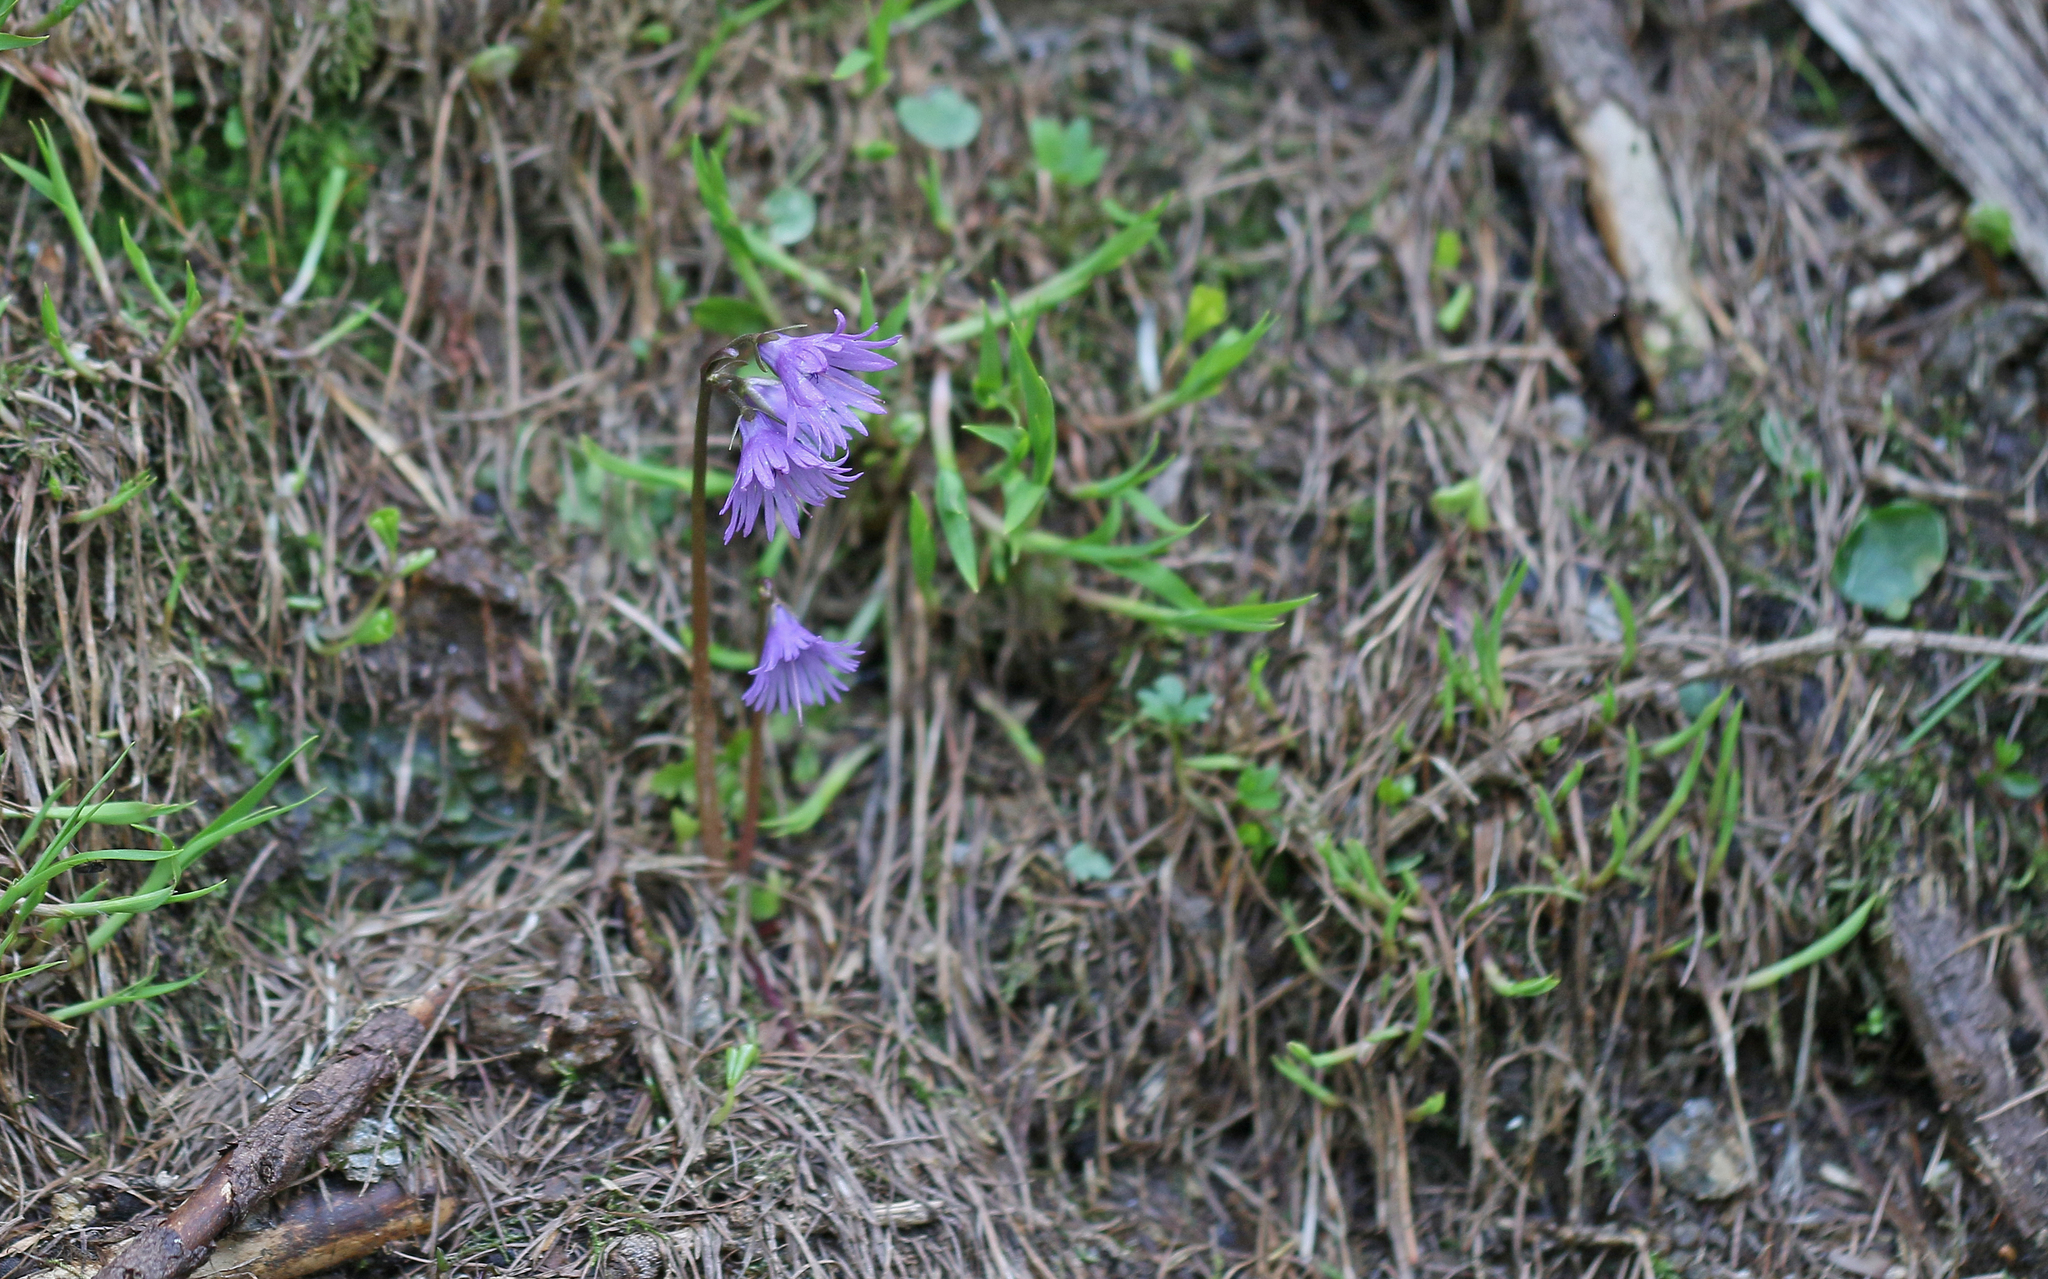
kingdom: Plantae
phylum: Tracheophyta
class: Magnoliopsida
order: Ericales
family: Primulaceae
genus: Soldanella
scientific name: Soldanella alpina
